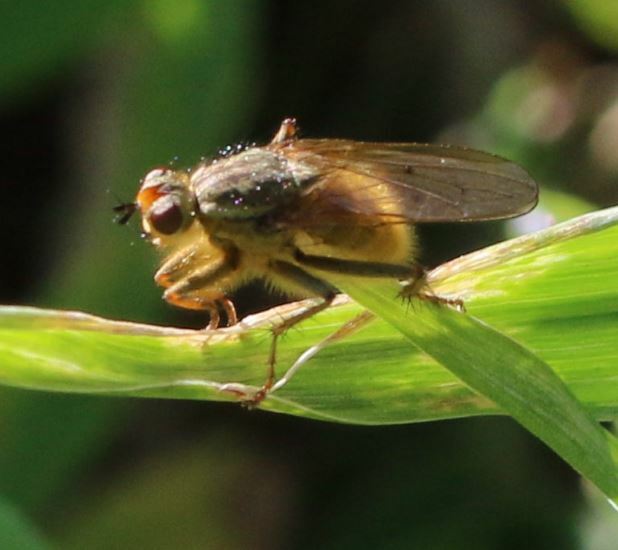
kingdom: Animalia
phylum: Arthropoda
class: Insecta
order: Diptera
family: Scathophagidae
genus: Scathophaga
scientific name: Scathophaga stercoraria
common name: Yellow dung fly
